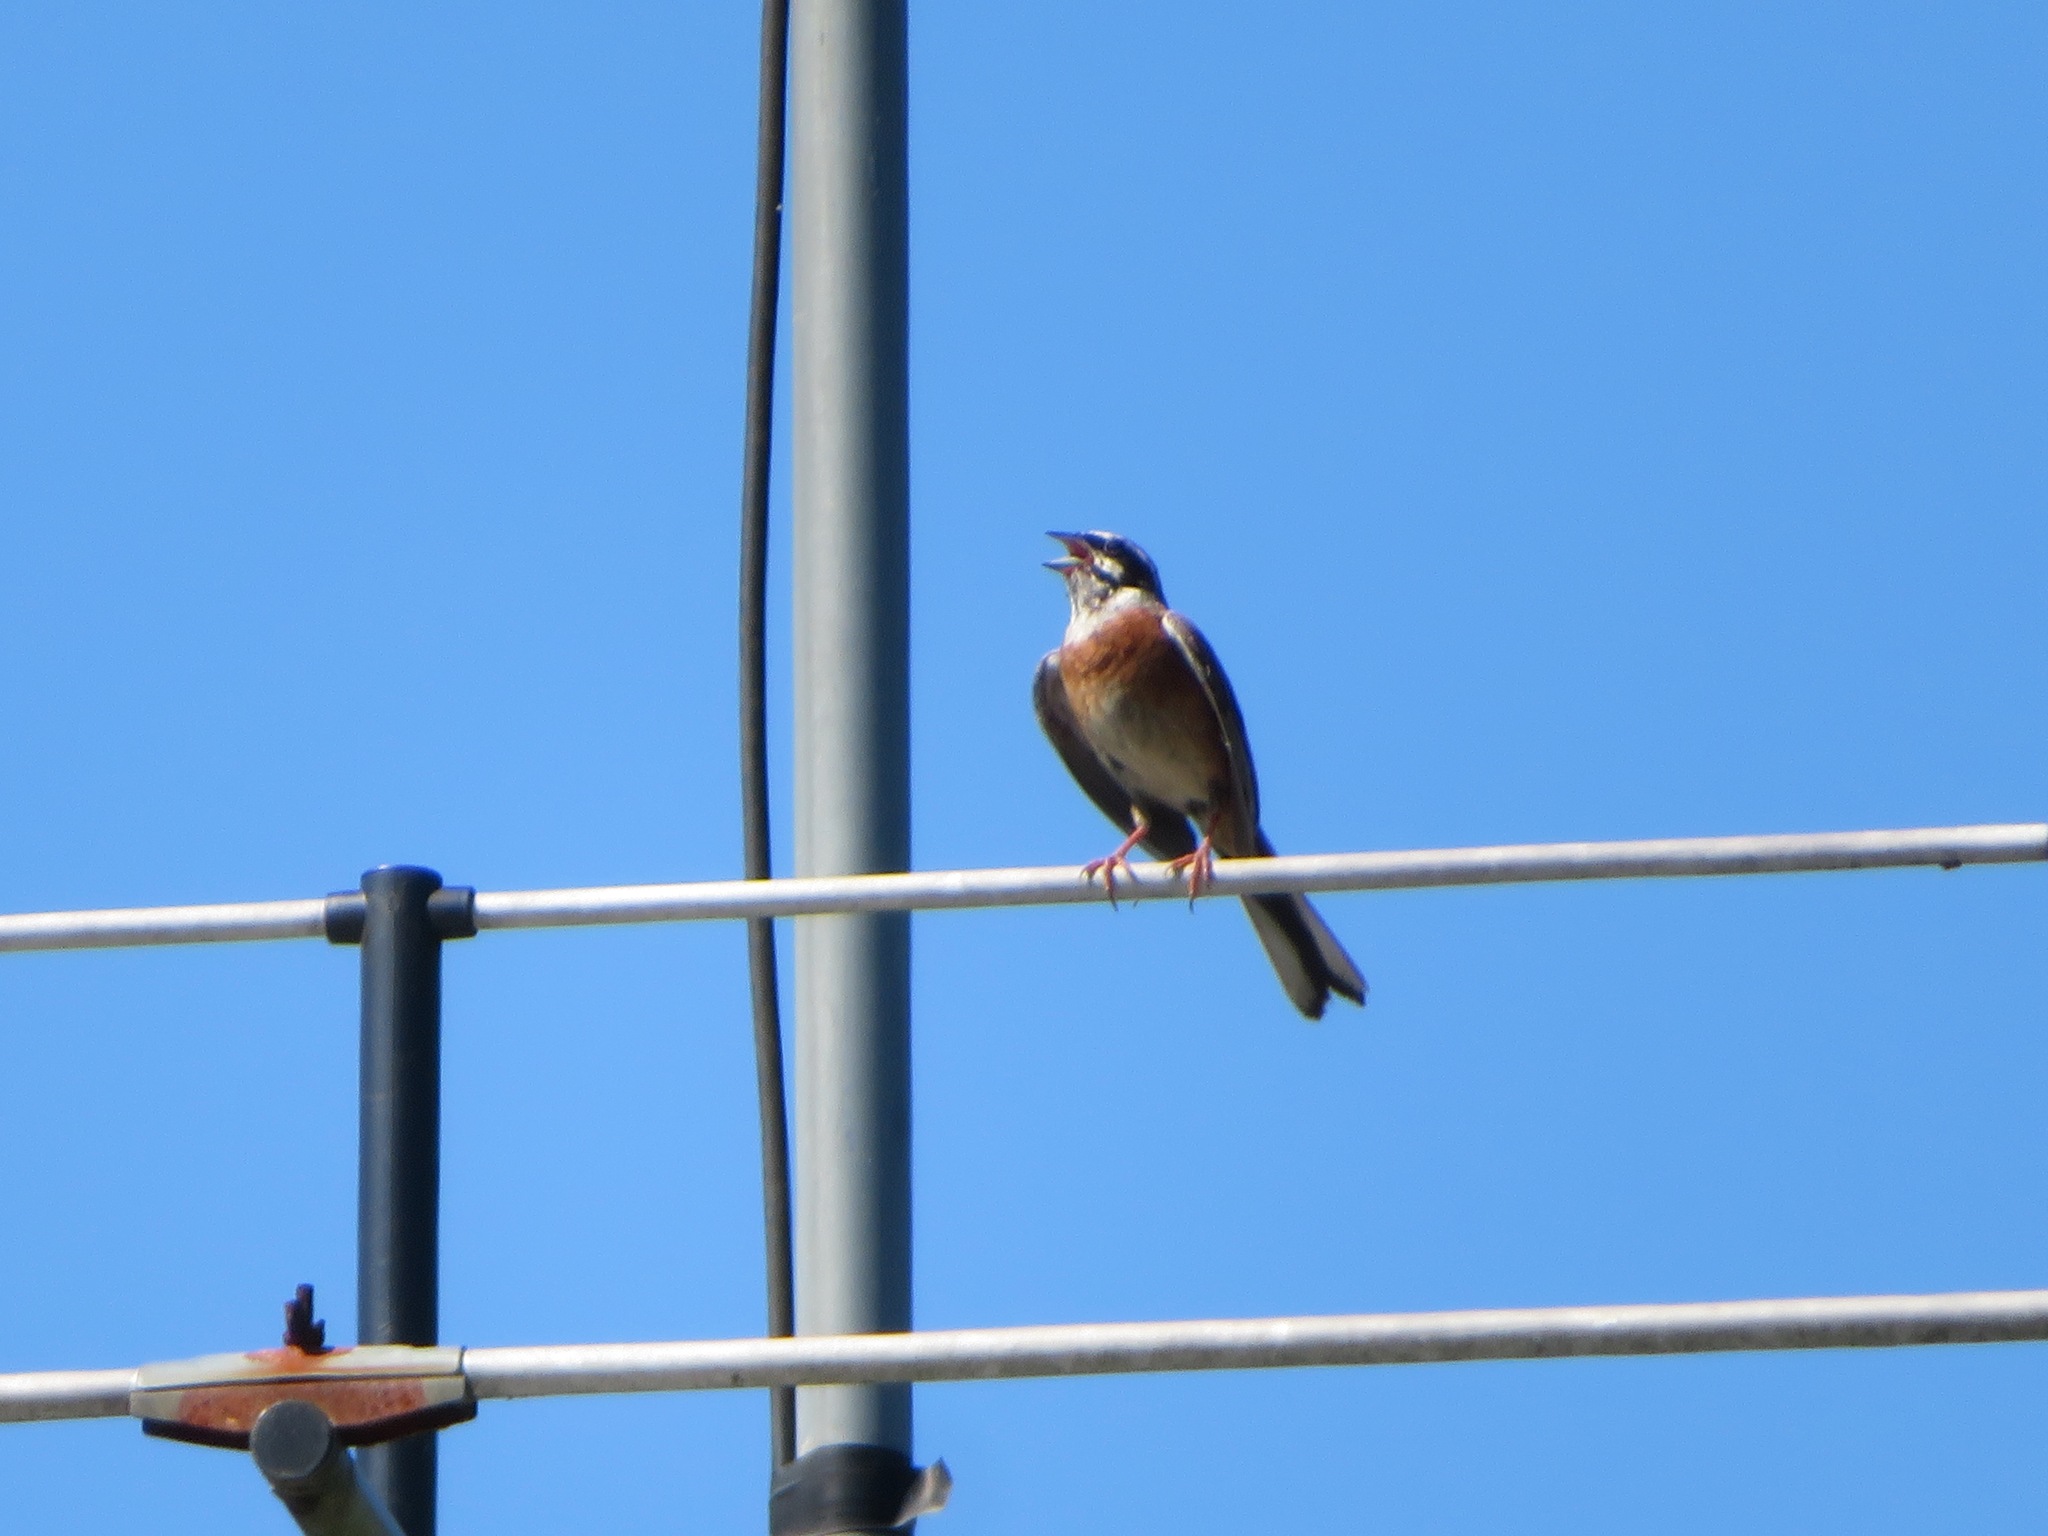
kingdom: Animalia
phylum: Chordata
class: Aves
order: Passeriformes
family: Emberizidae
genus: Emberiza
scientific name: Emberiza cioides
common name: Meadow bunting
